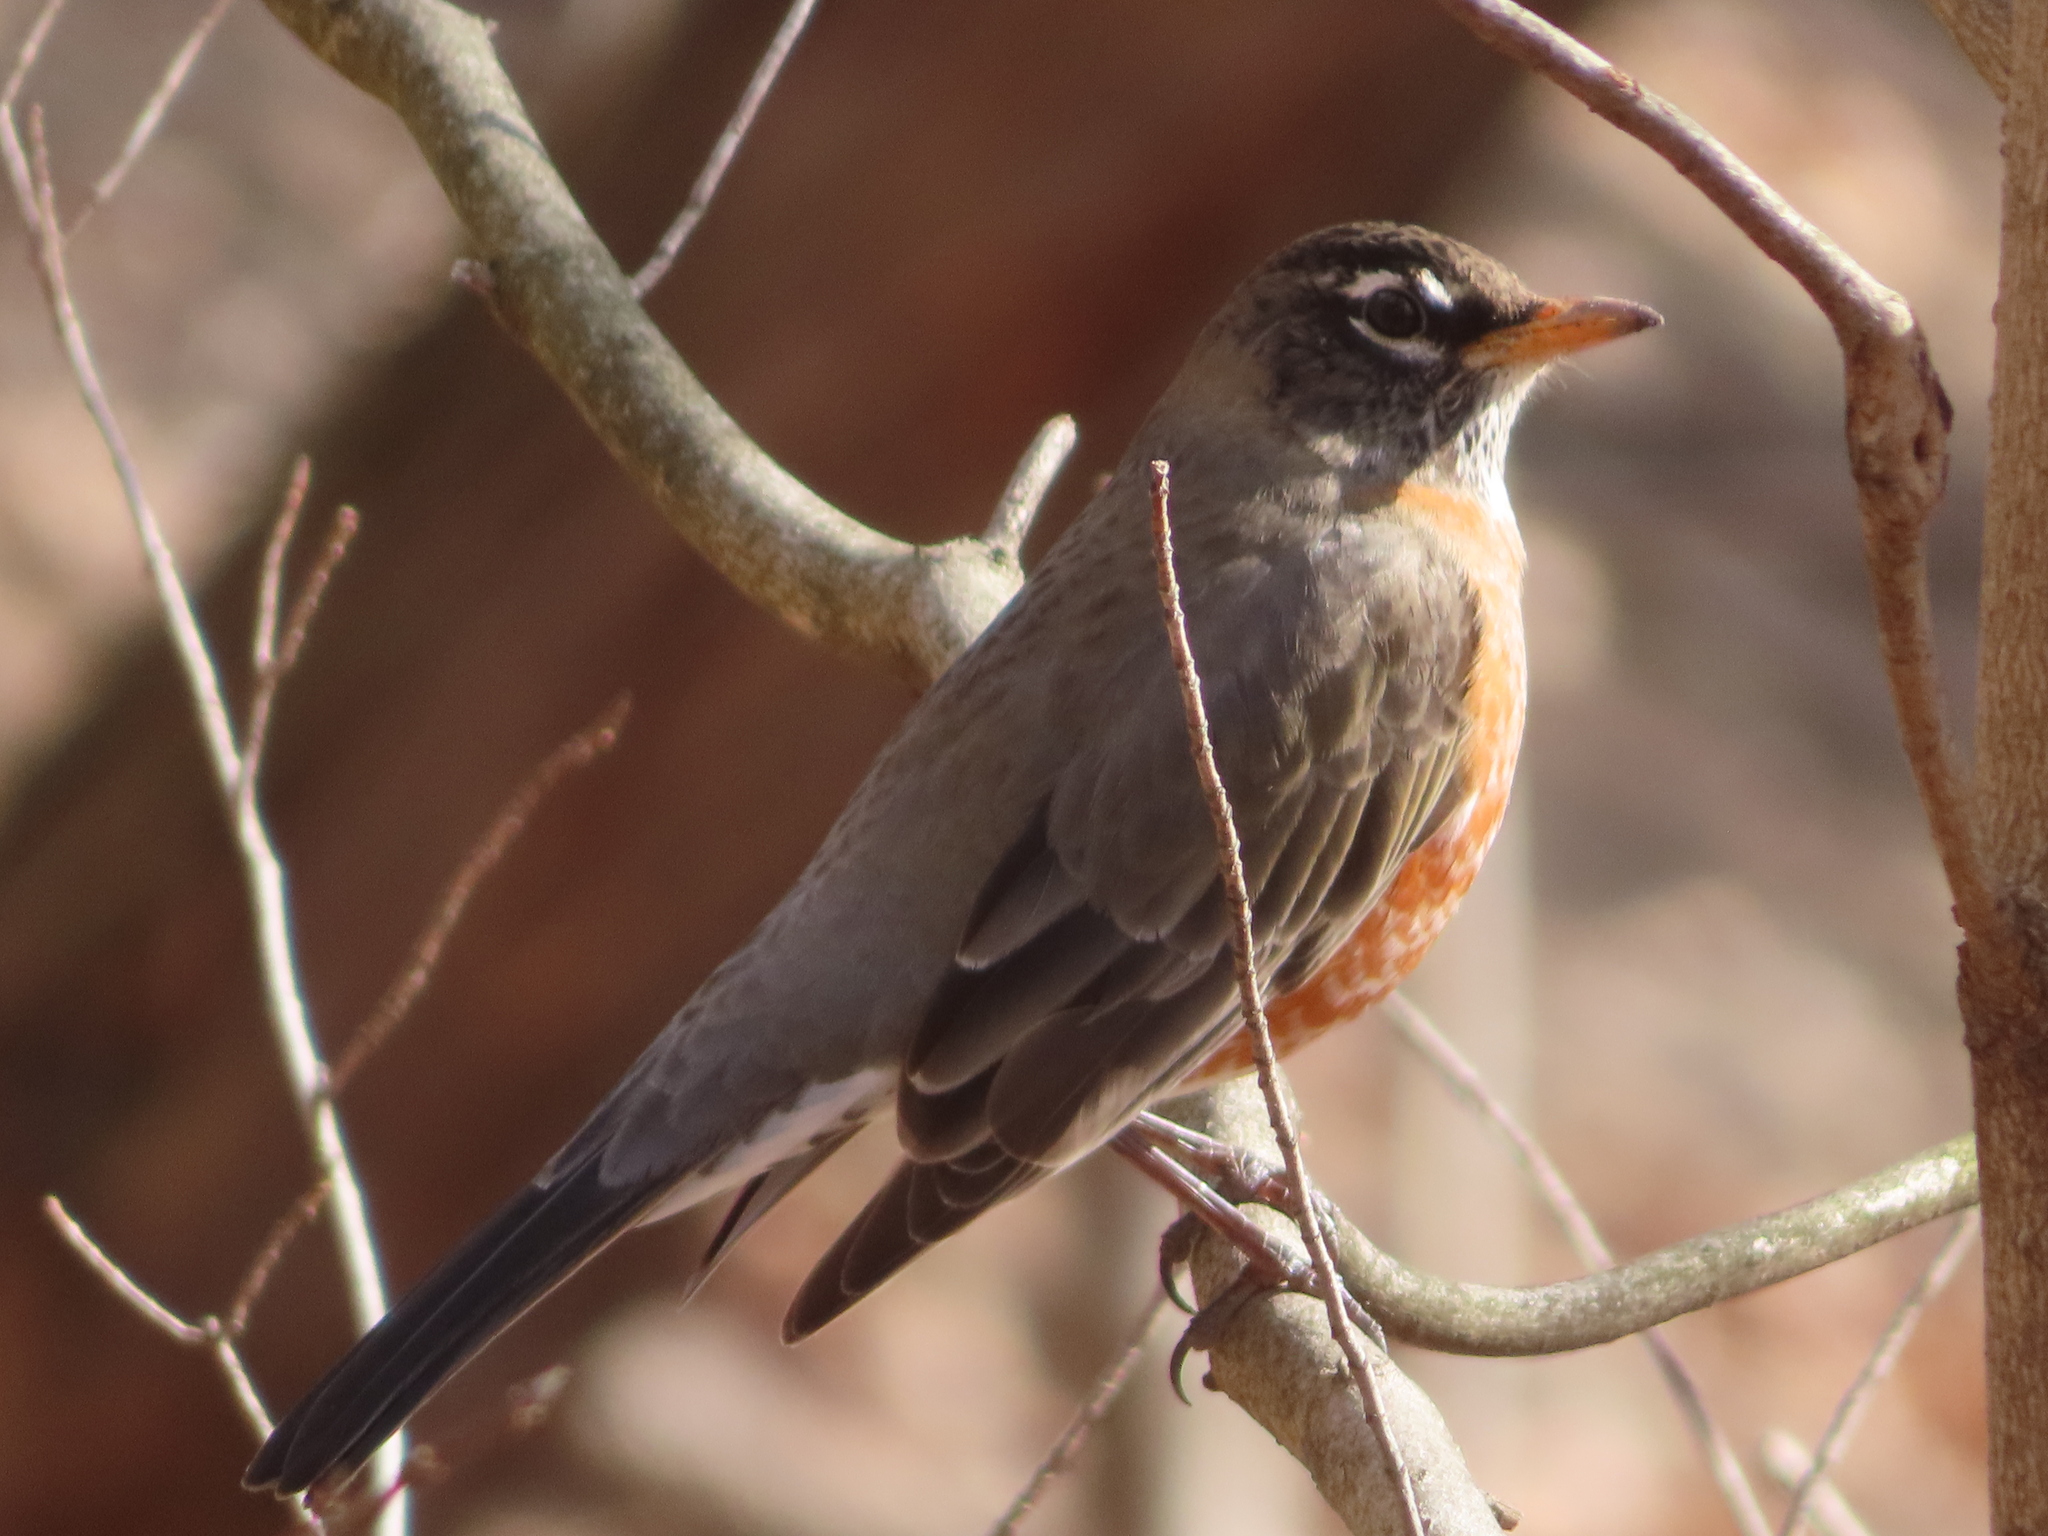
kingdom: Animalia
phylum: Chordata
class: Aves
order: Passeriformes
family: Turdidae
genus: Turdus
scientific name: Turdus migratorius
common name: American robin
